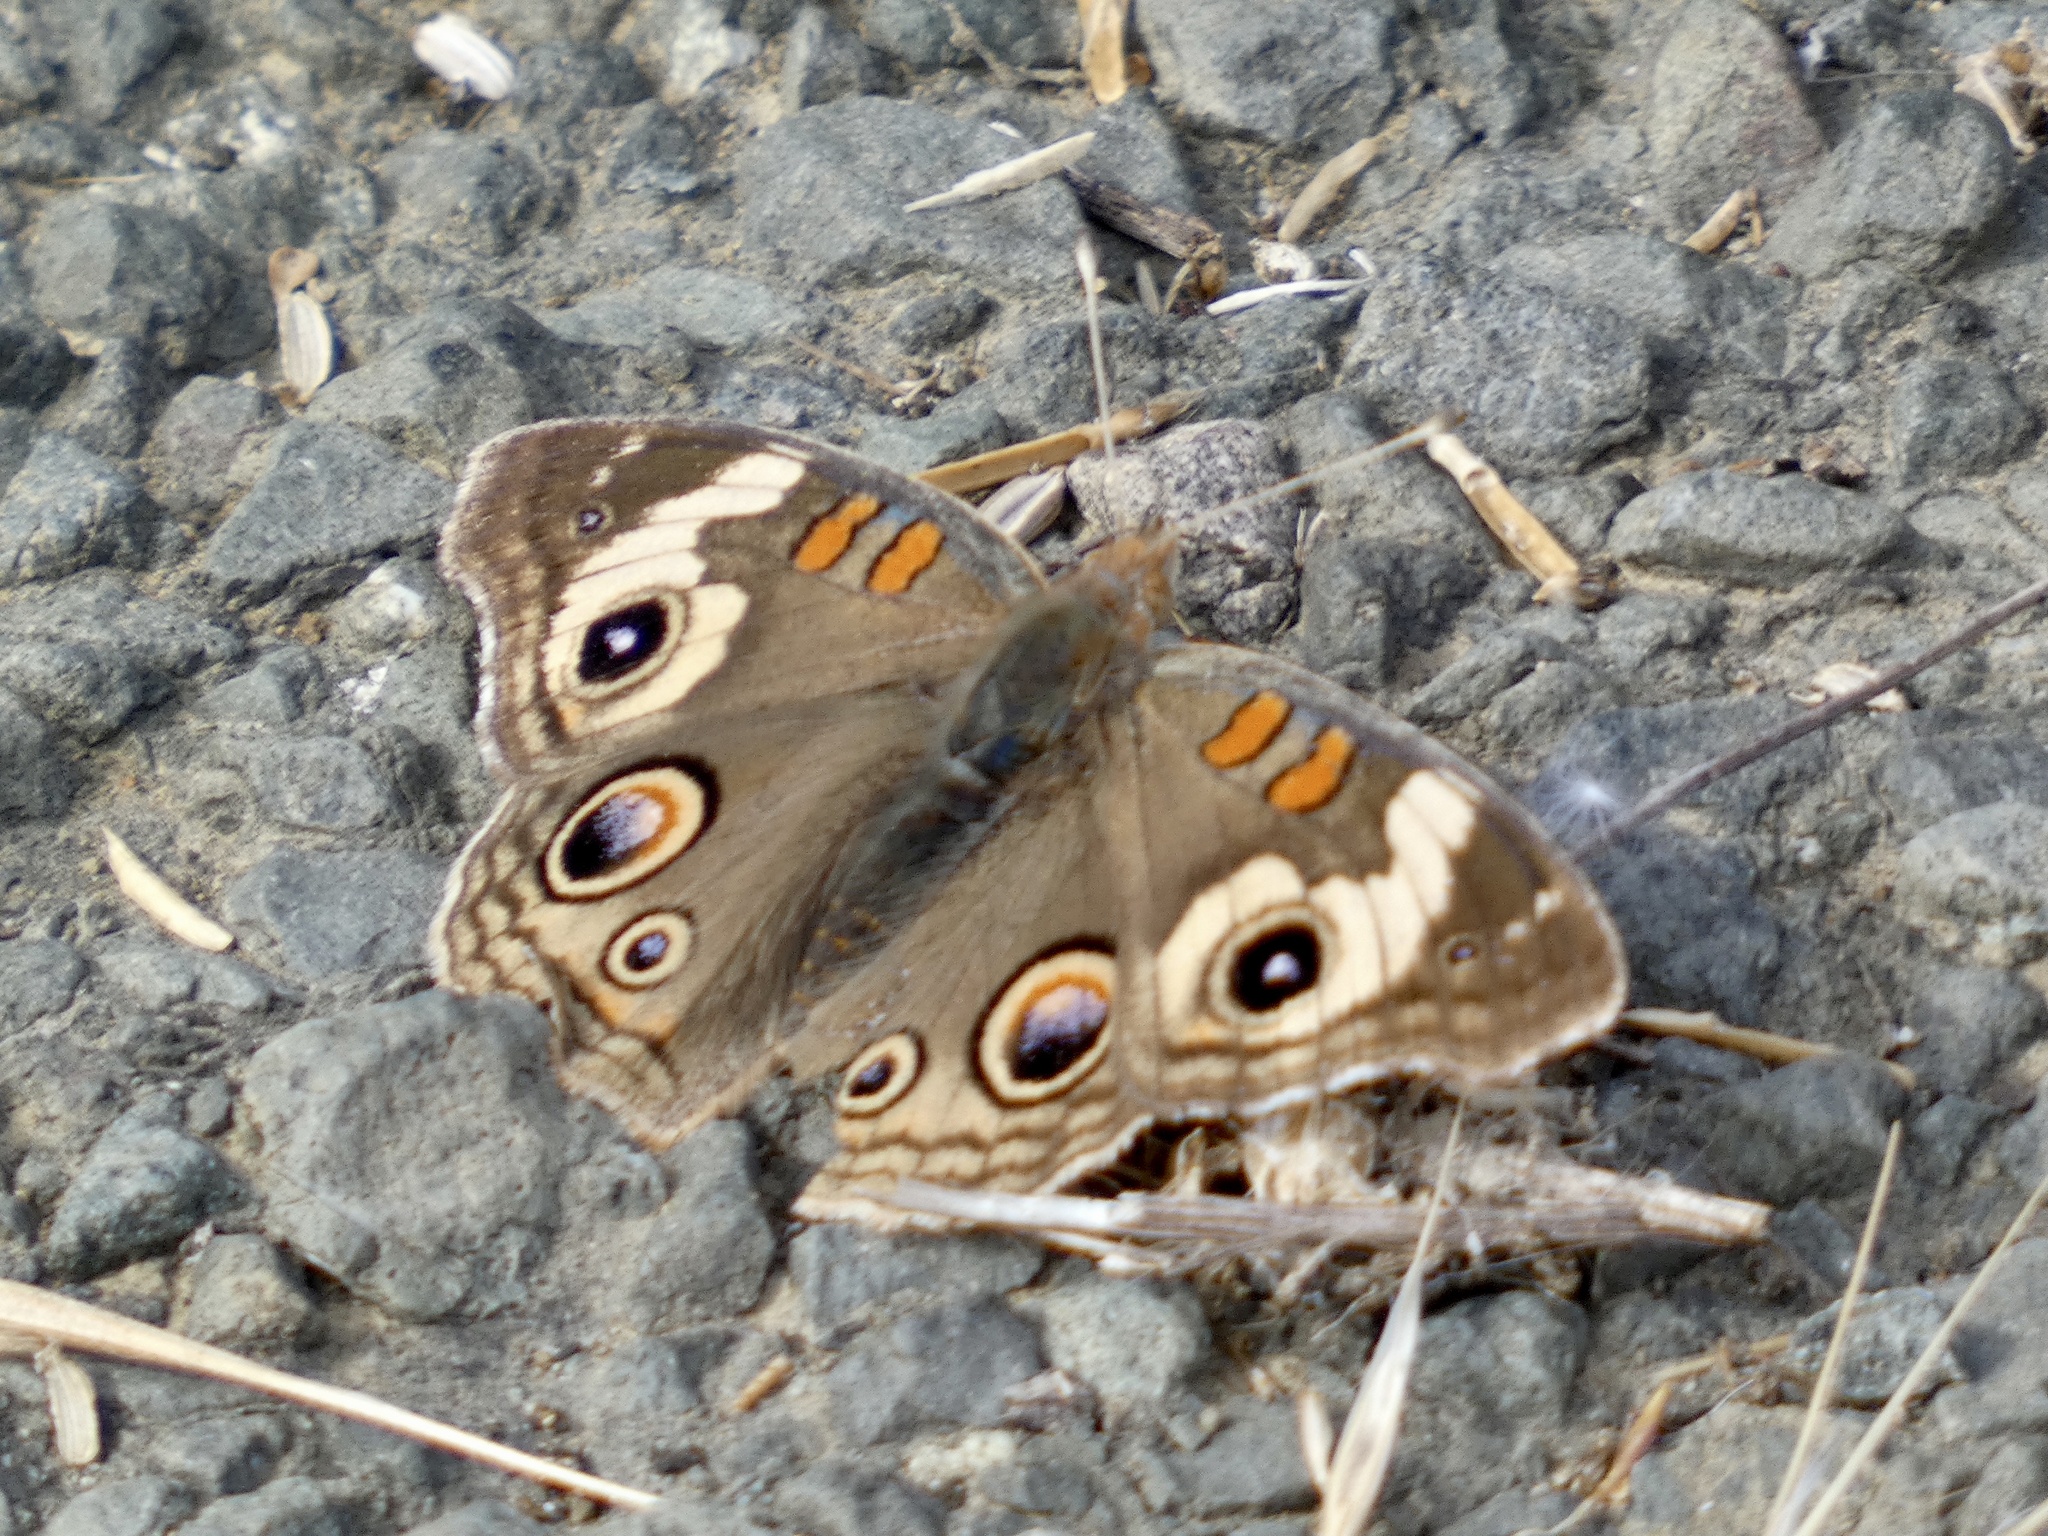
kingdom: Animalia
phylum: Arthropoda
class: Insecta
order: Lepidoptera
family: Nymphalidae
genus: Junonia
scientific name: Junonia grisea
